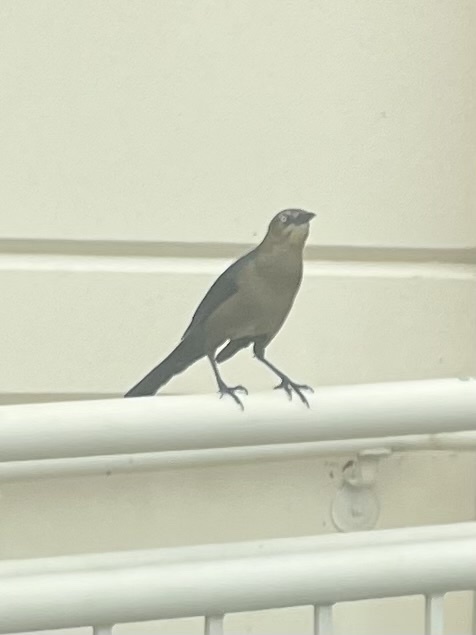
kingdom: Animalia
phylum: Chordata
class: Aves
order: Passeriformes
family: Icteridae
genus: Quiscalus
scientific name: Quiscalus mexicanus
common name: Great-tailed grackle
